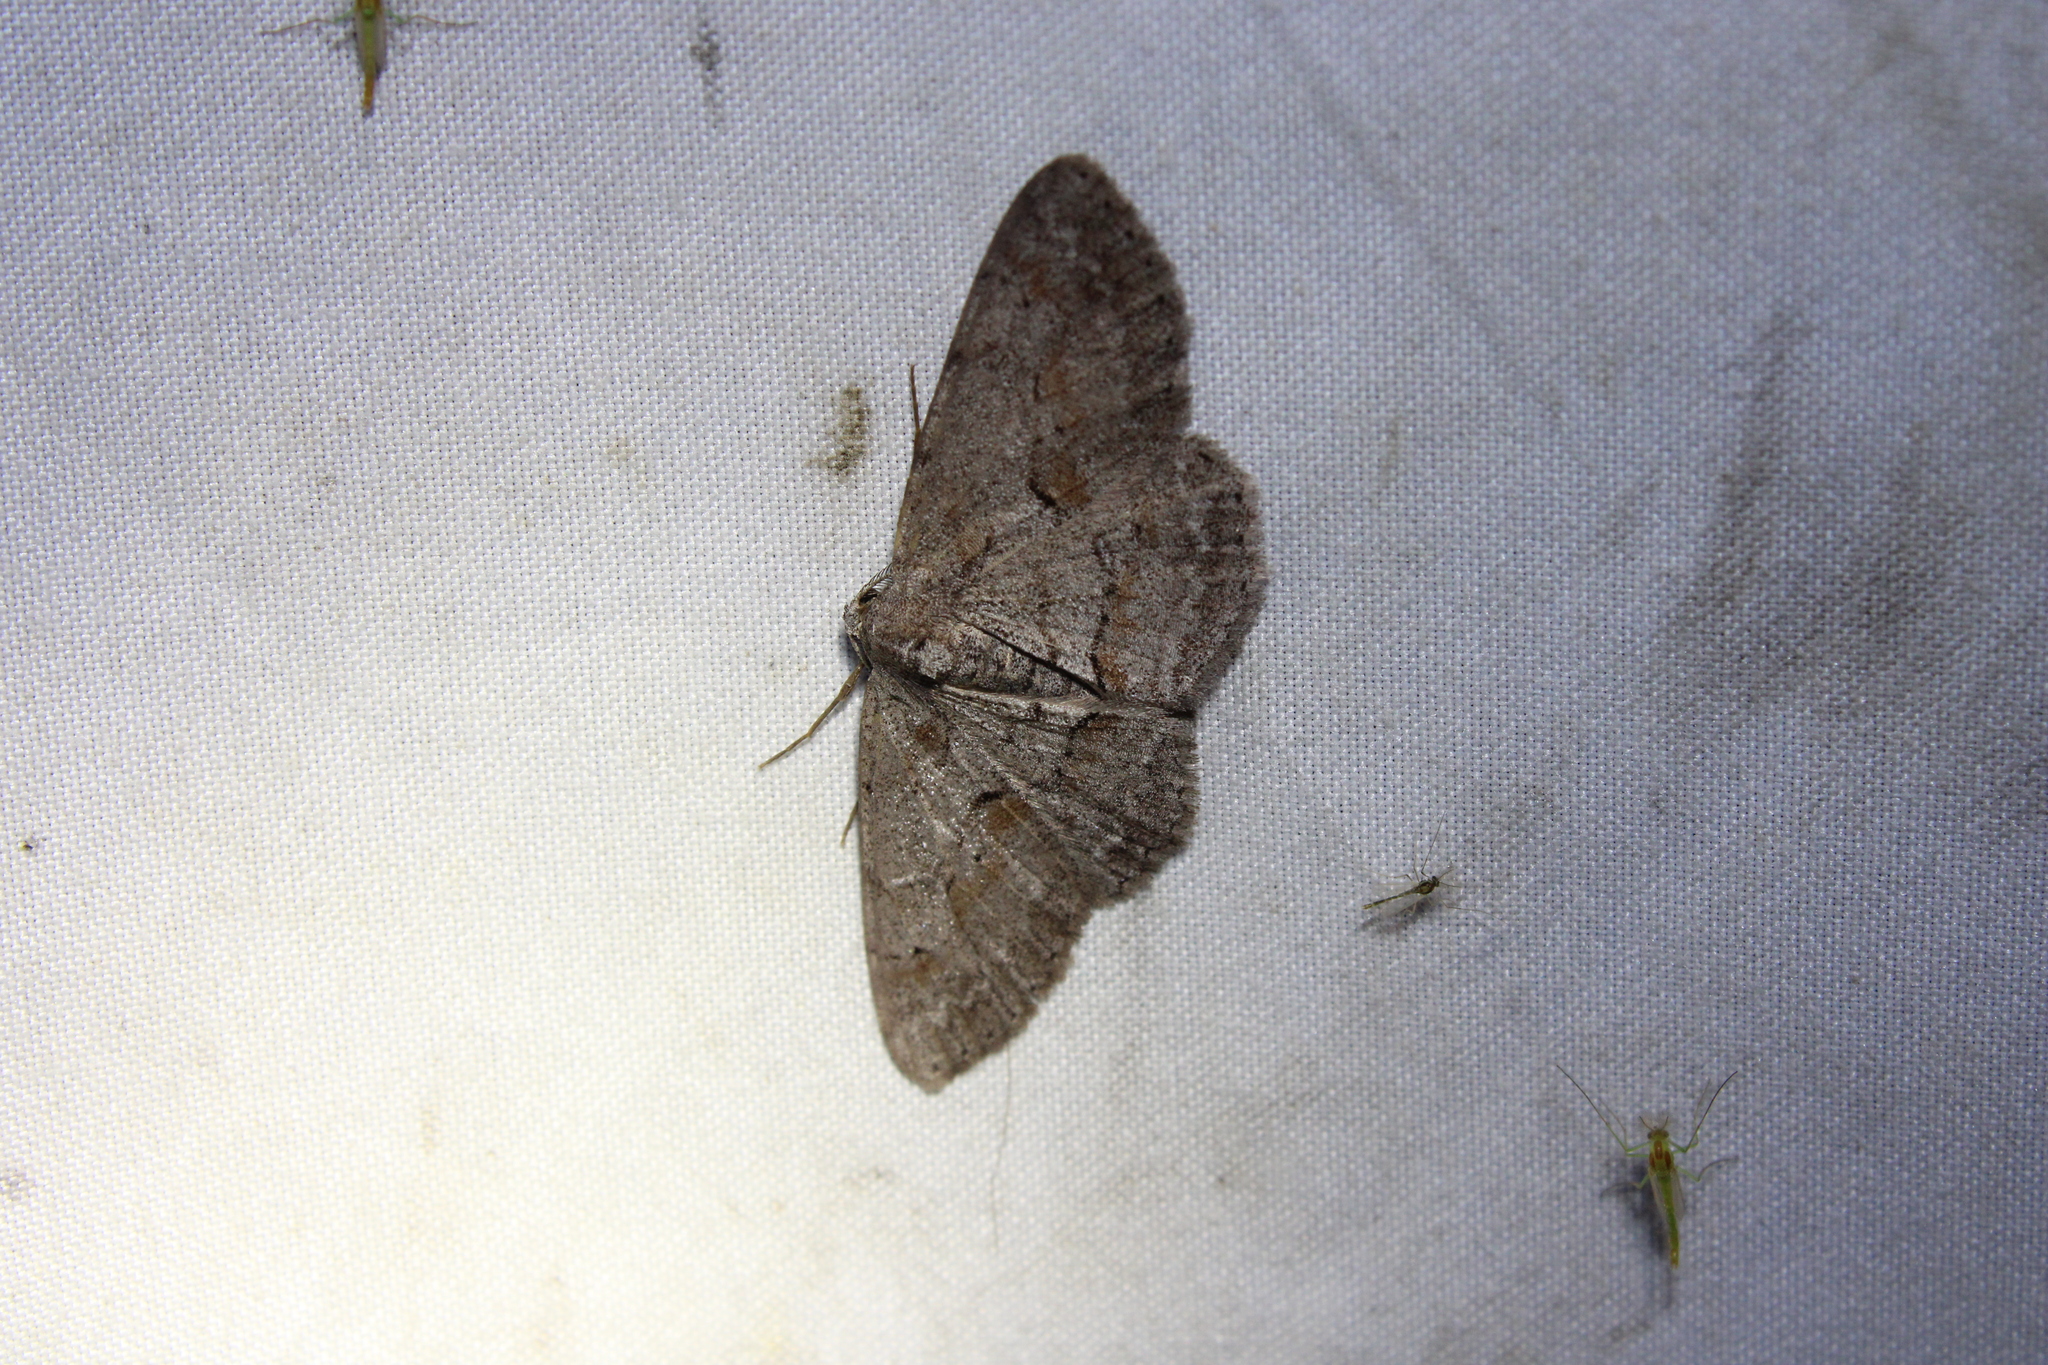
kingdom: Animalia
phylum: Arthropoda
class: Insecta
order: Lepidoptera
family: Geometridae
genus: Iridopsis
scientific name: Iridopsis vellivolata
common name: Large purplish gray
